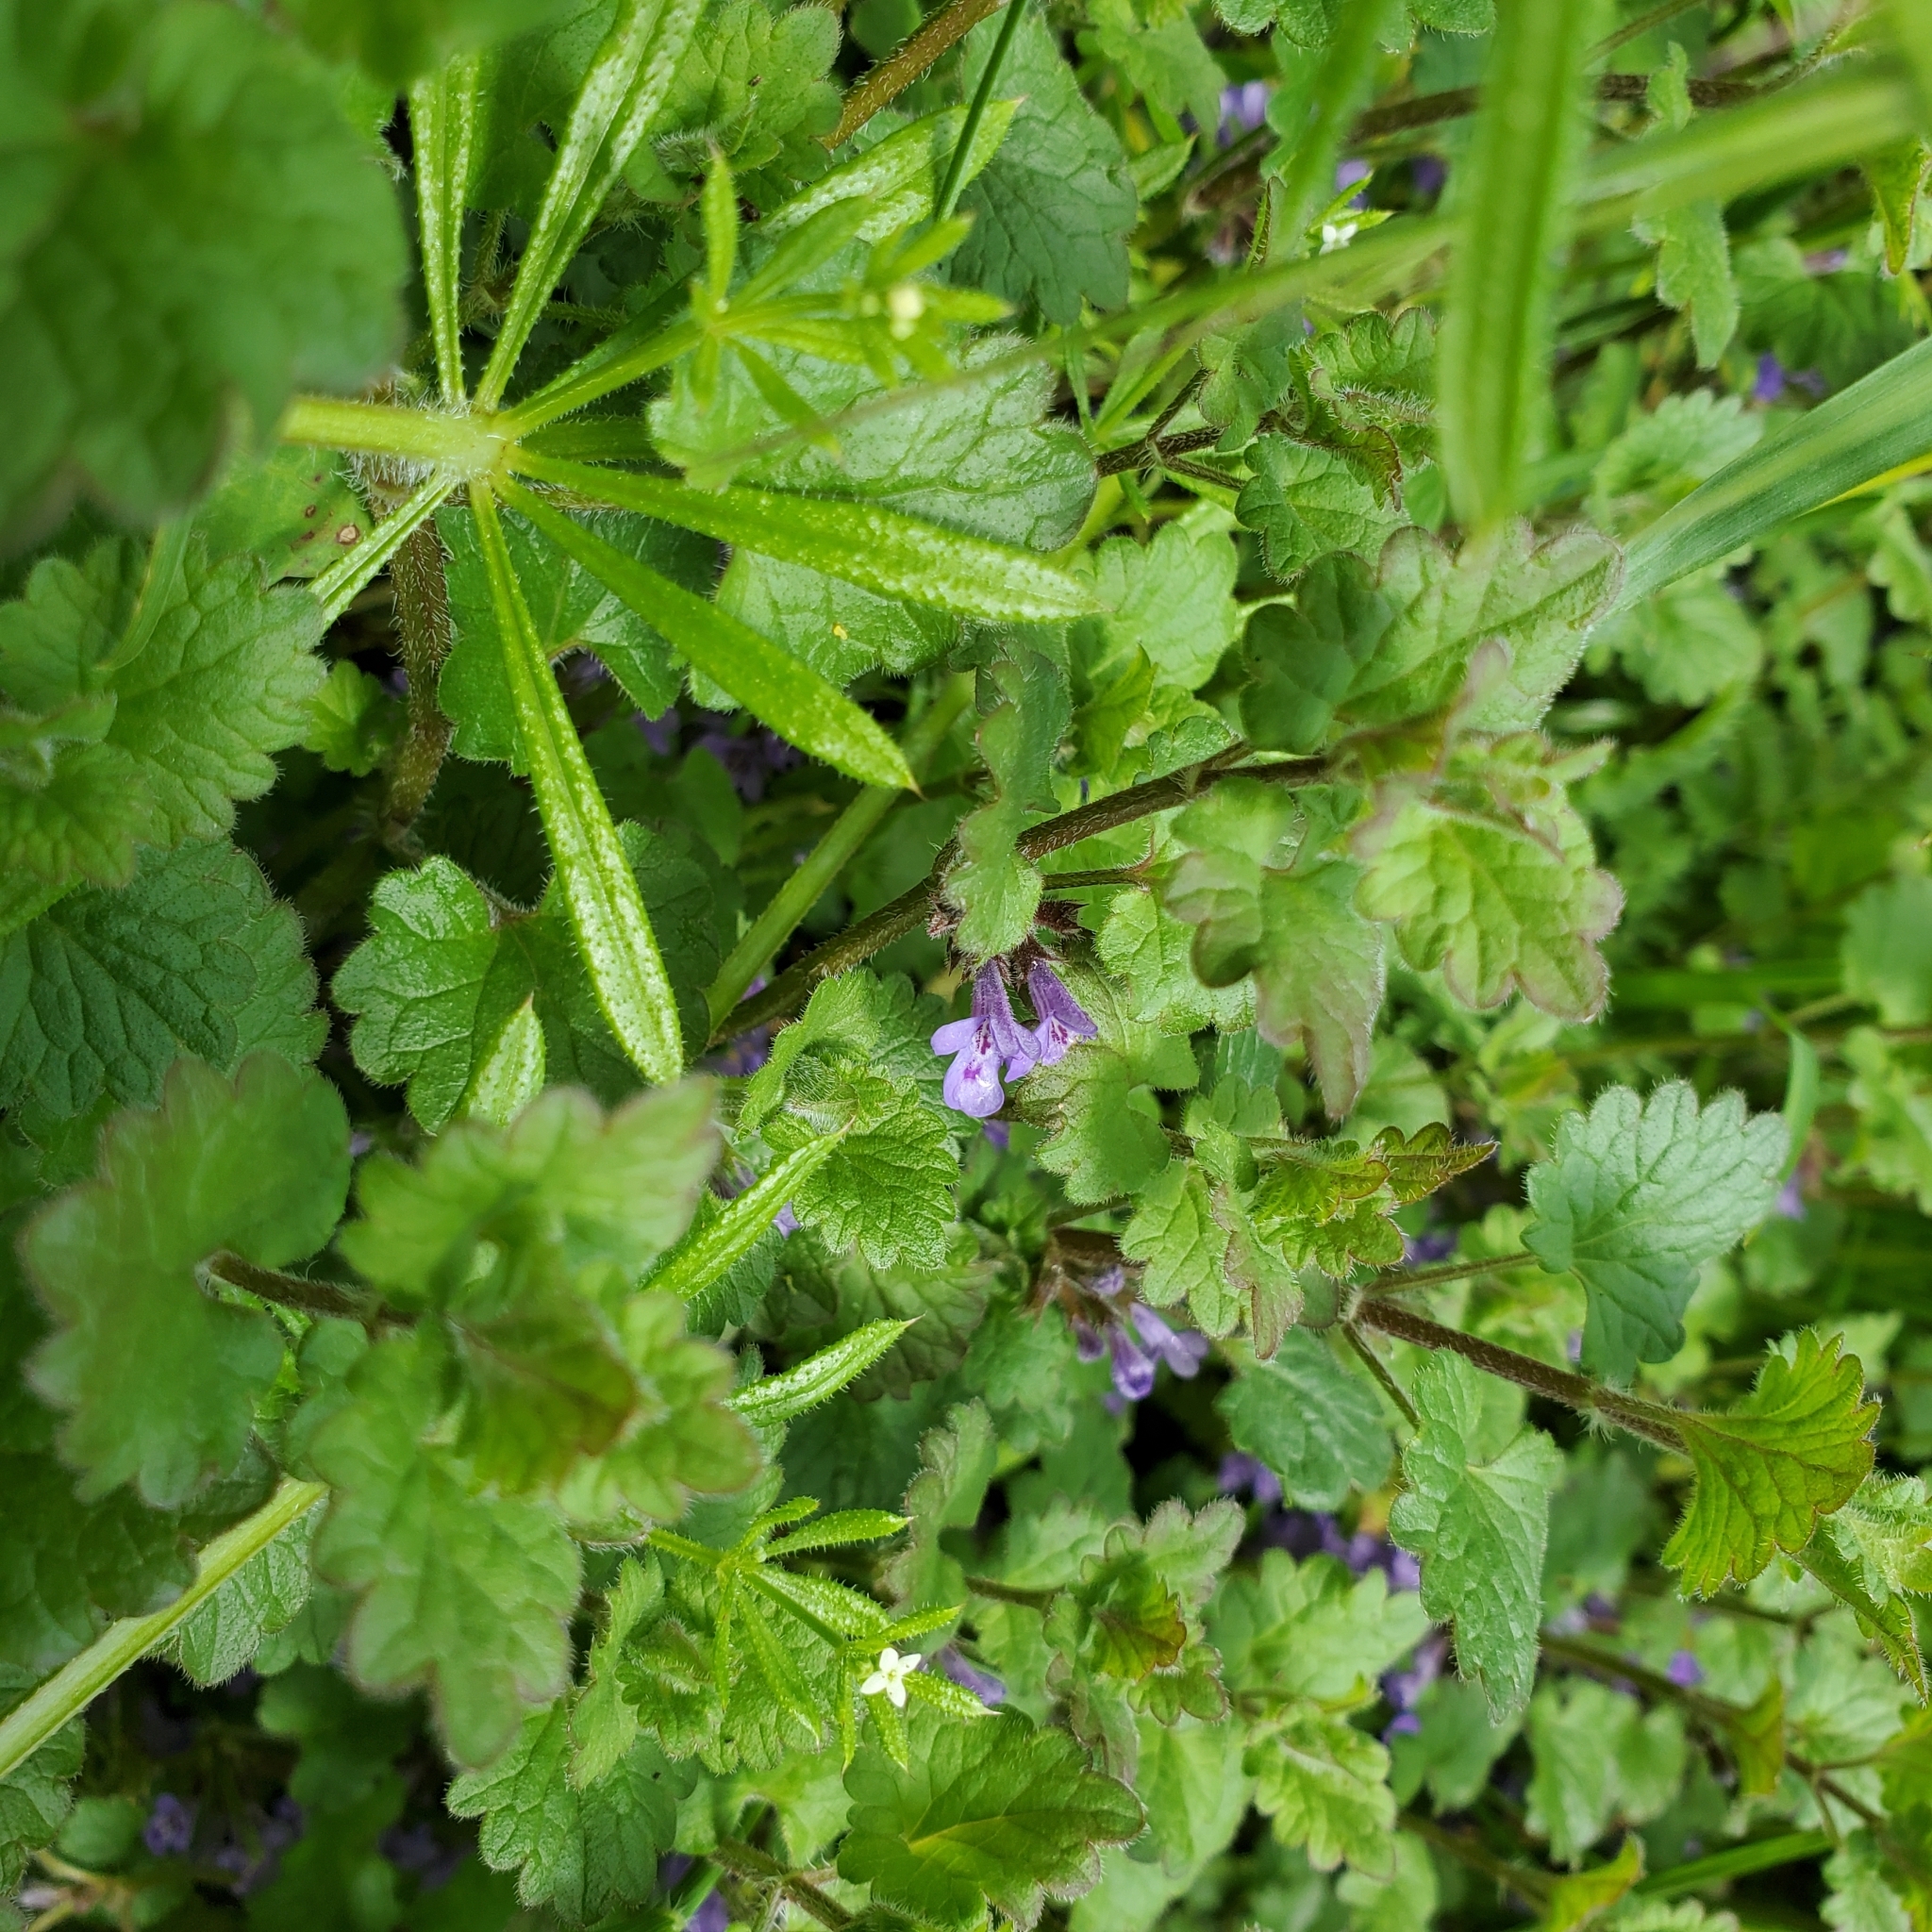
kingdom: Plantae
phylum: Tracheophyta
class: Magnoliopsida
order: Lamiales
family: Lamiaceae
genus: Glechoma
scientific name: Glechoma hederacea
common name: Ground ivy
